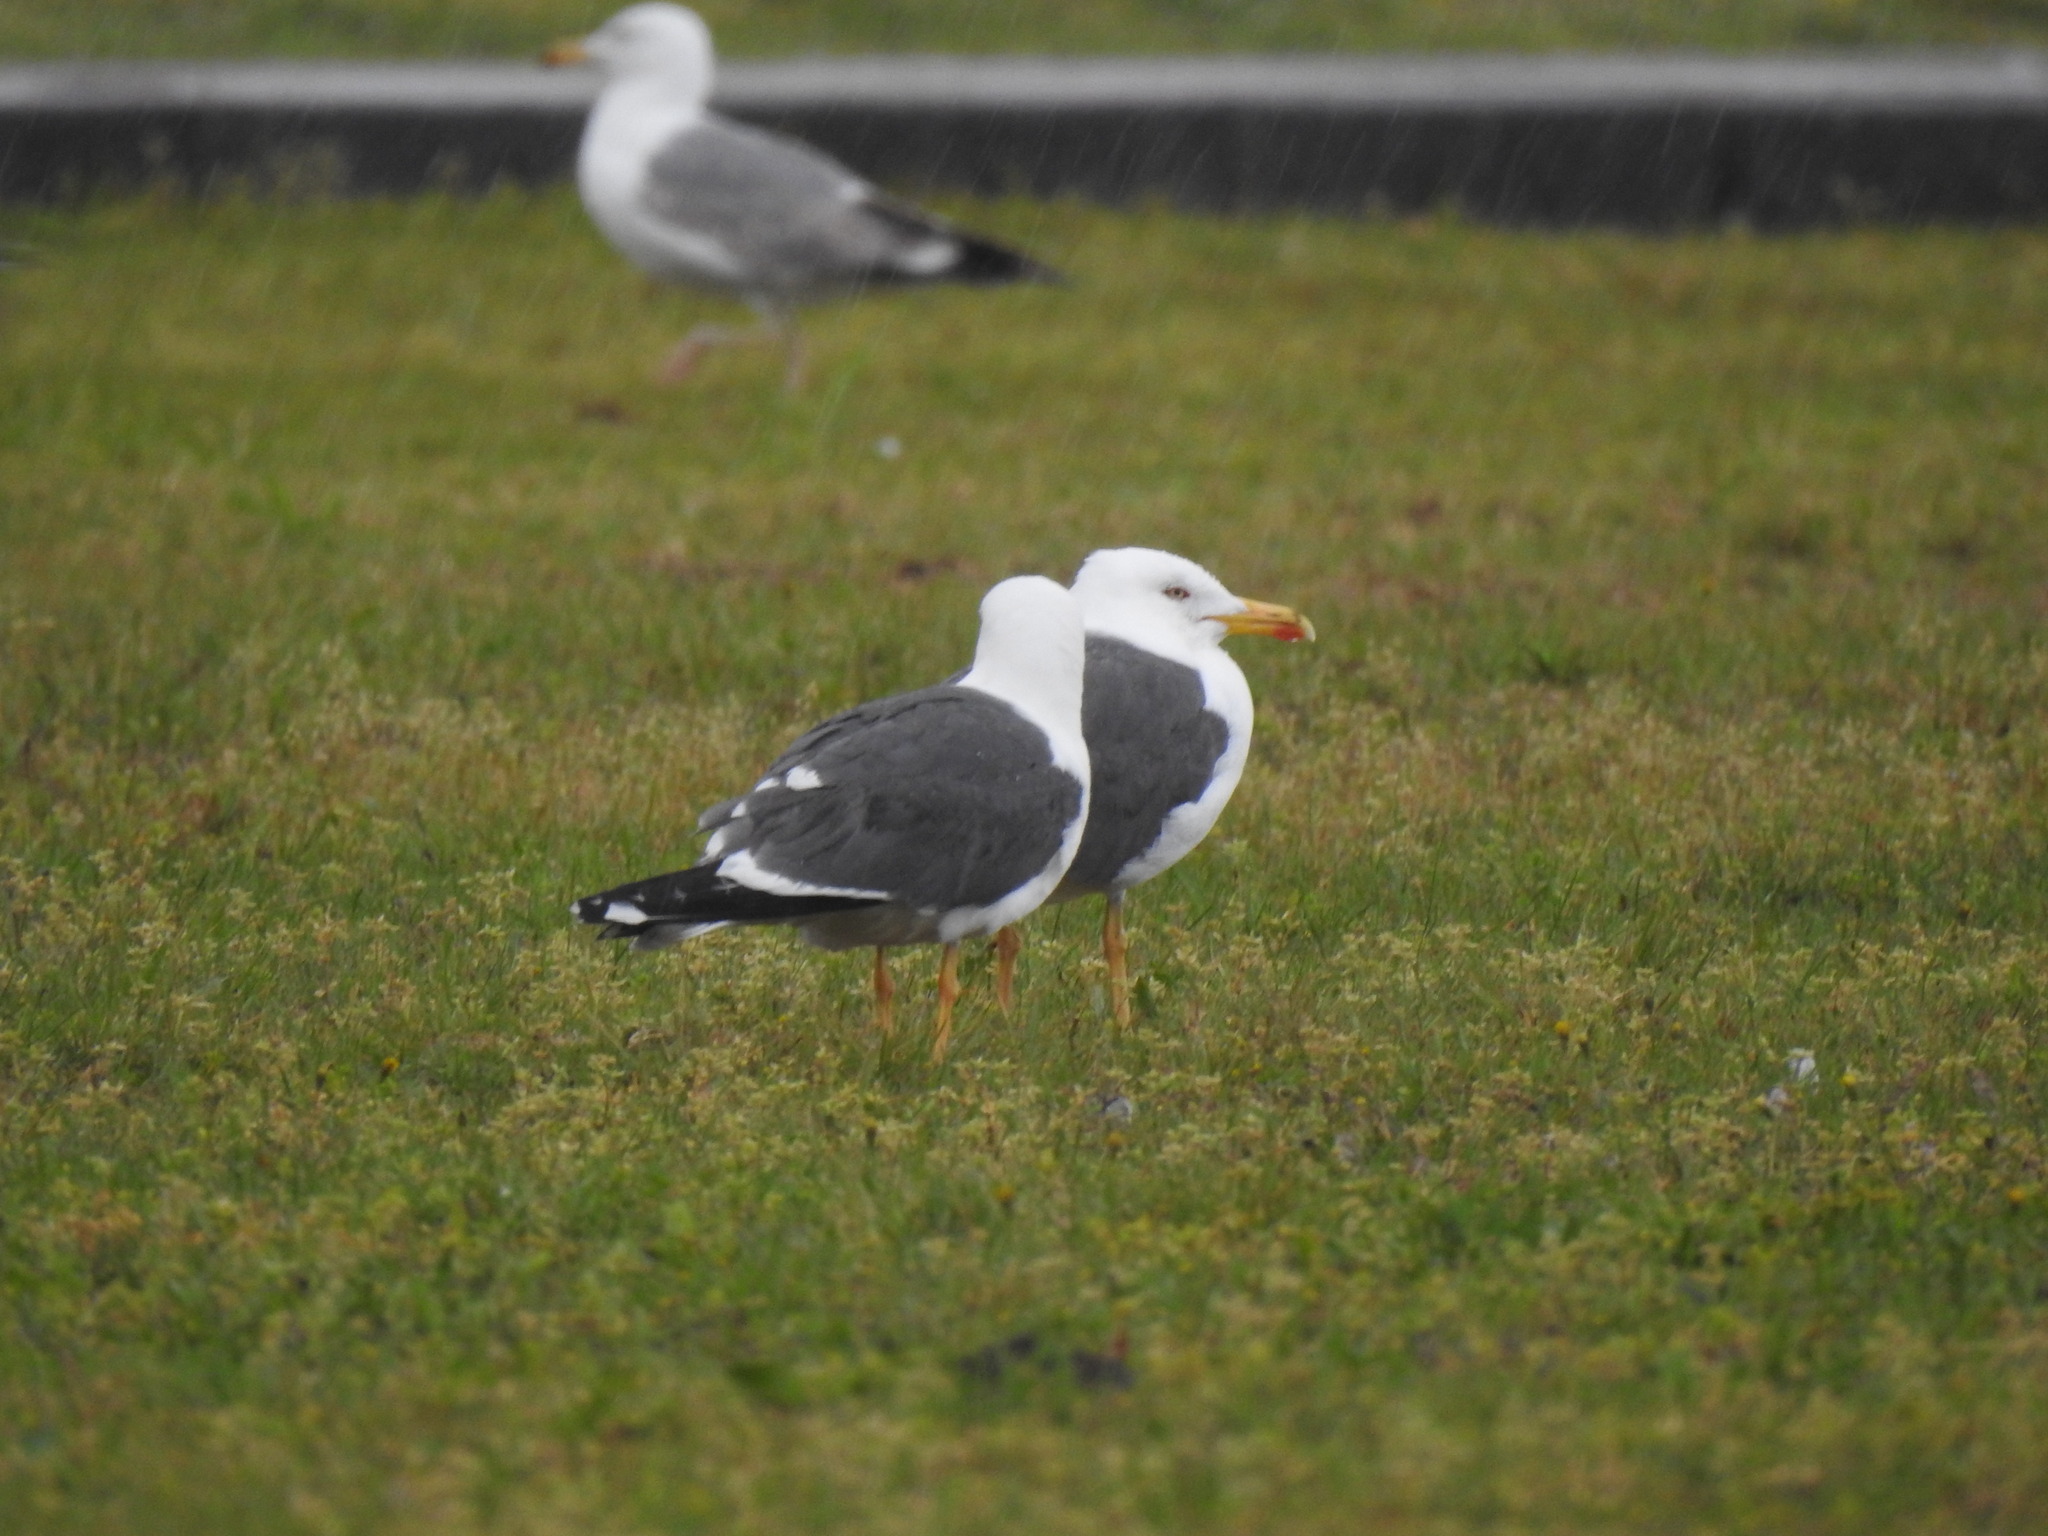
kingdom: Animalia
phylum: Chordata
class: Aves
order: Charadriiformes
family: Laridae
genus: Larus
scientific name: Larus fuscus
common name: Lesser black-backed gull
